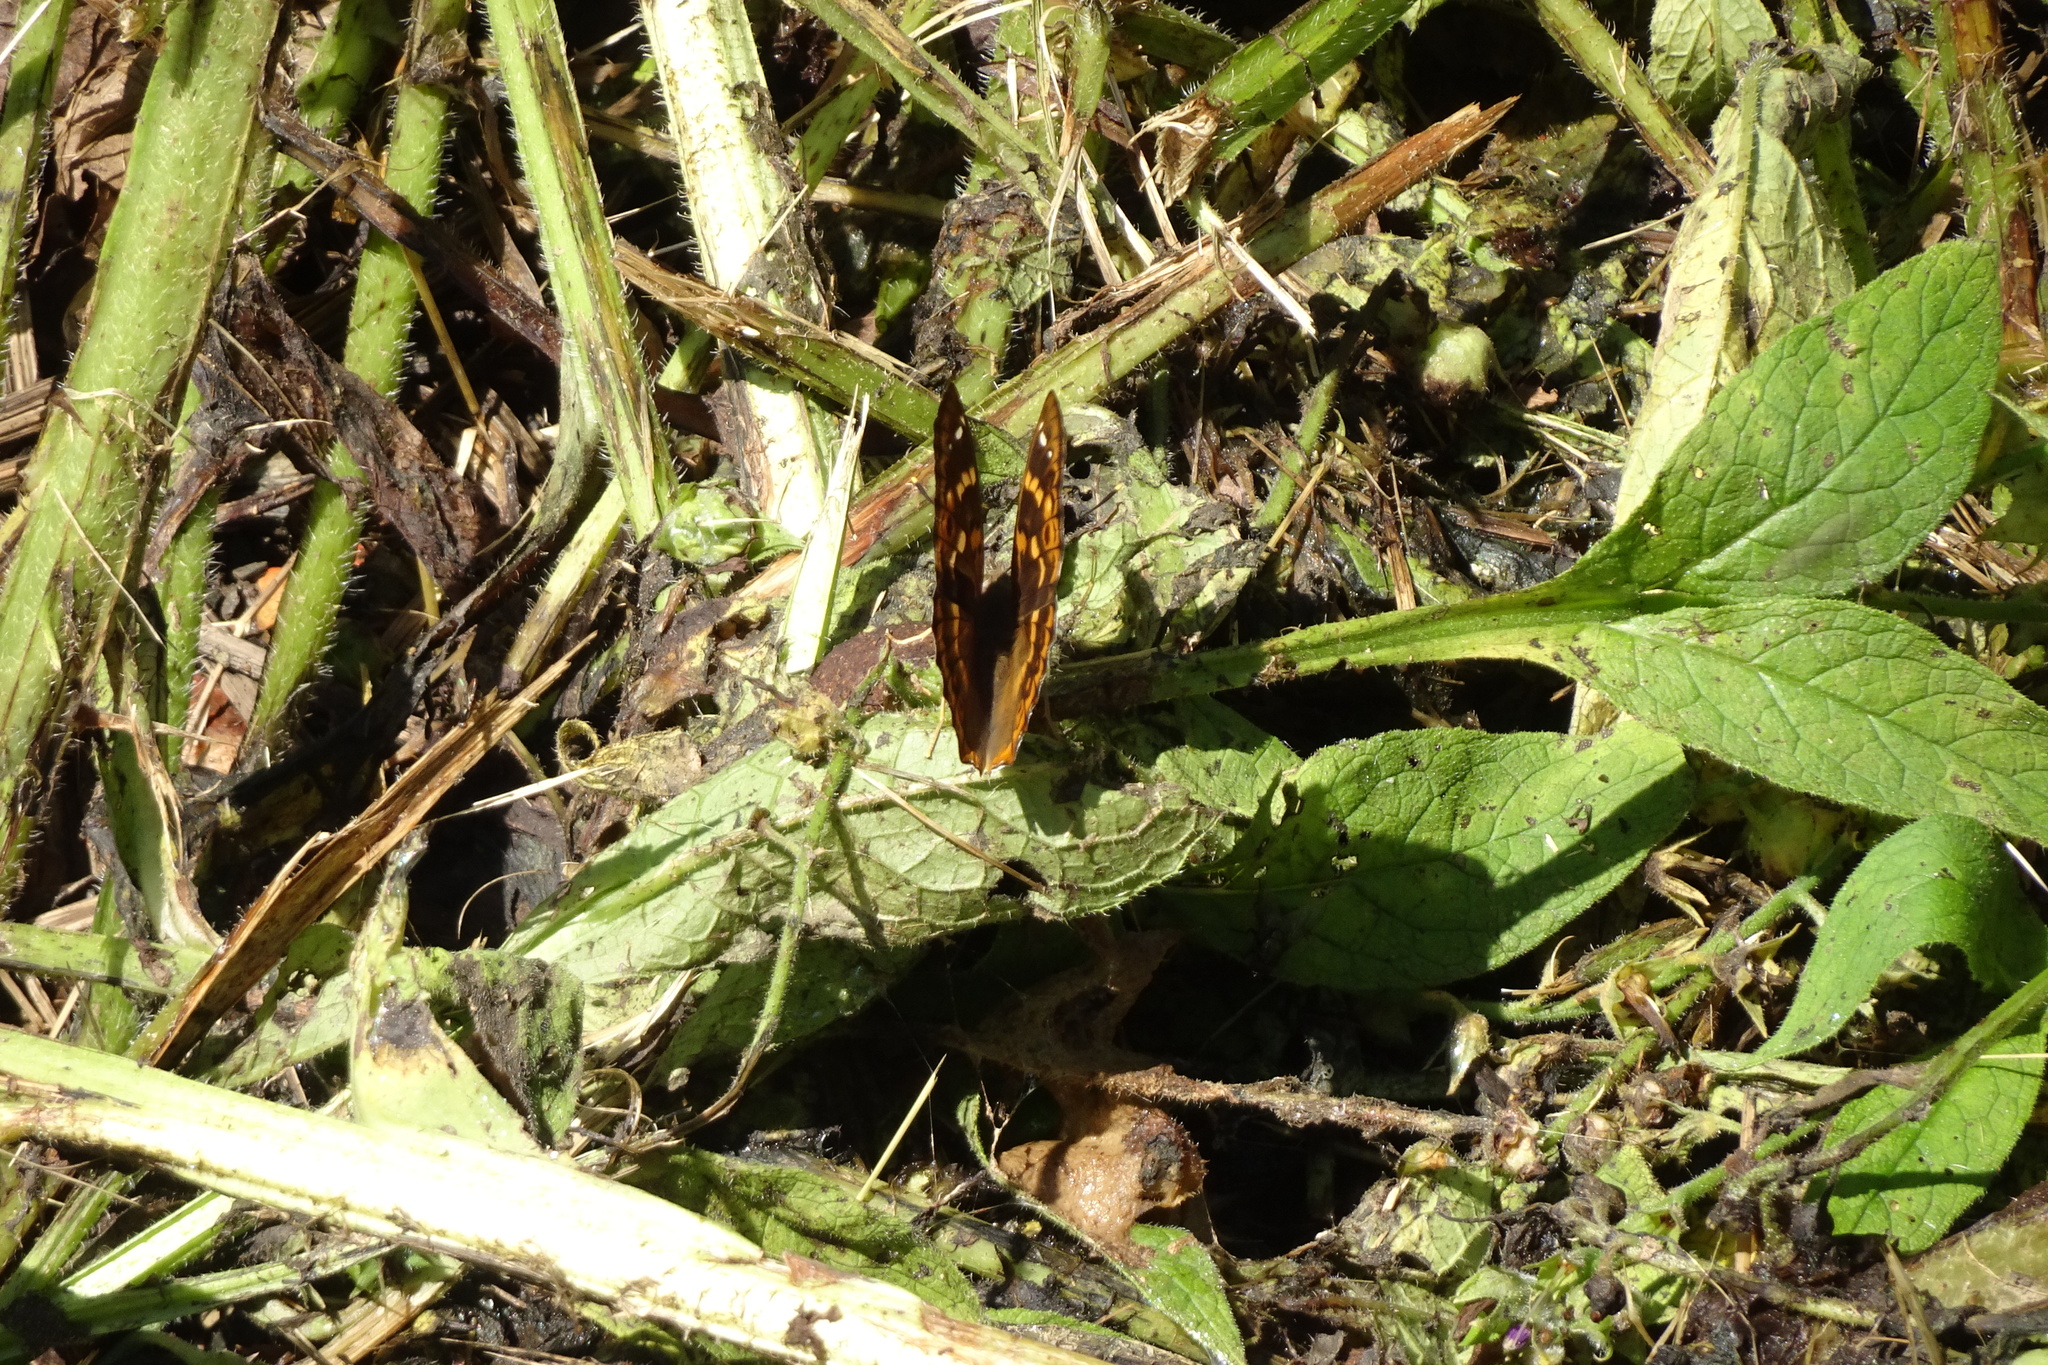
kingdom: Animalia
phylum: Arthropoda
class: Insecta
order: Lepidoptera
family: Nymphalidae
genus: Apatura
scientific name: Apatura ilia
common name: Lesser purple emperor
